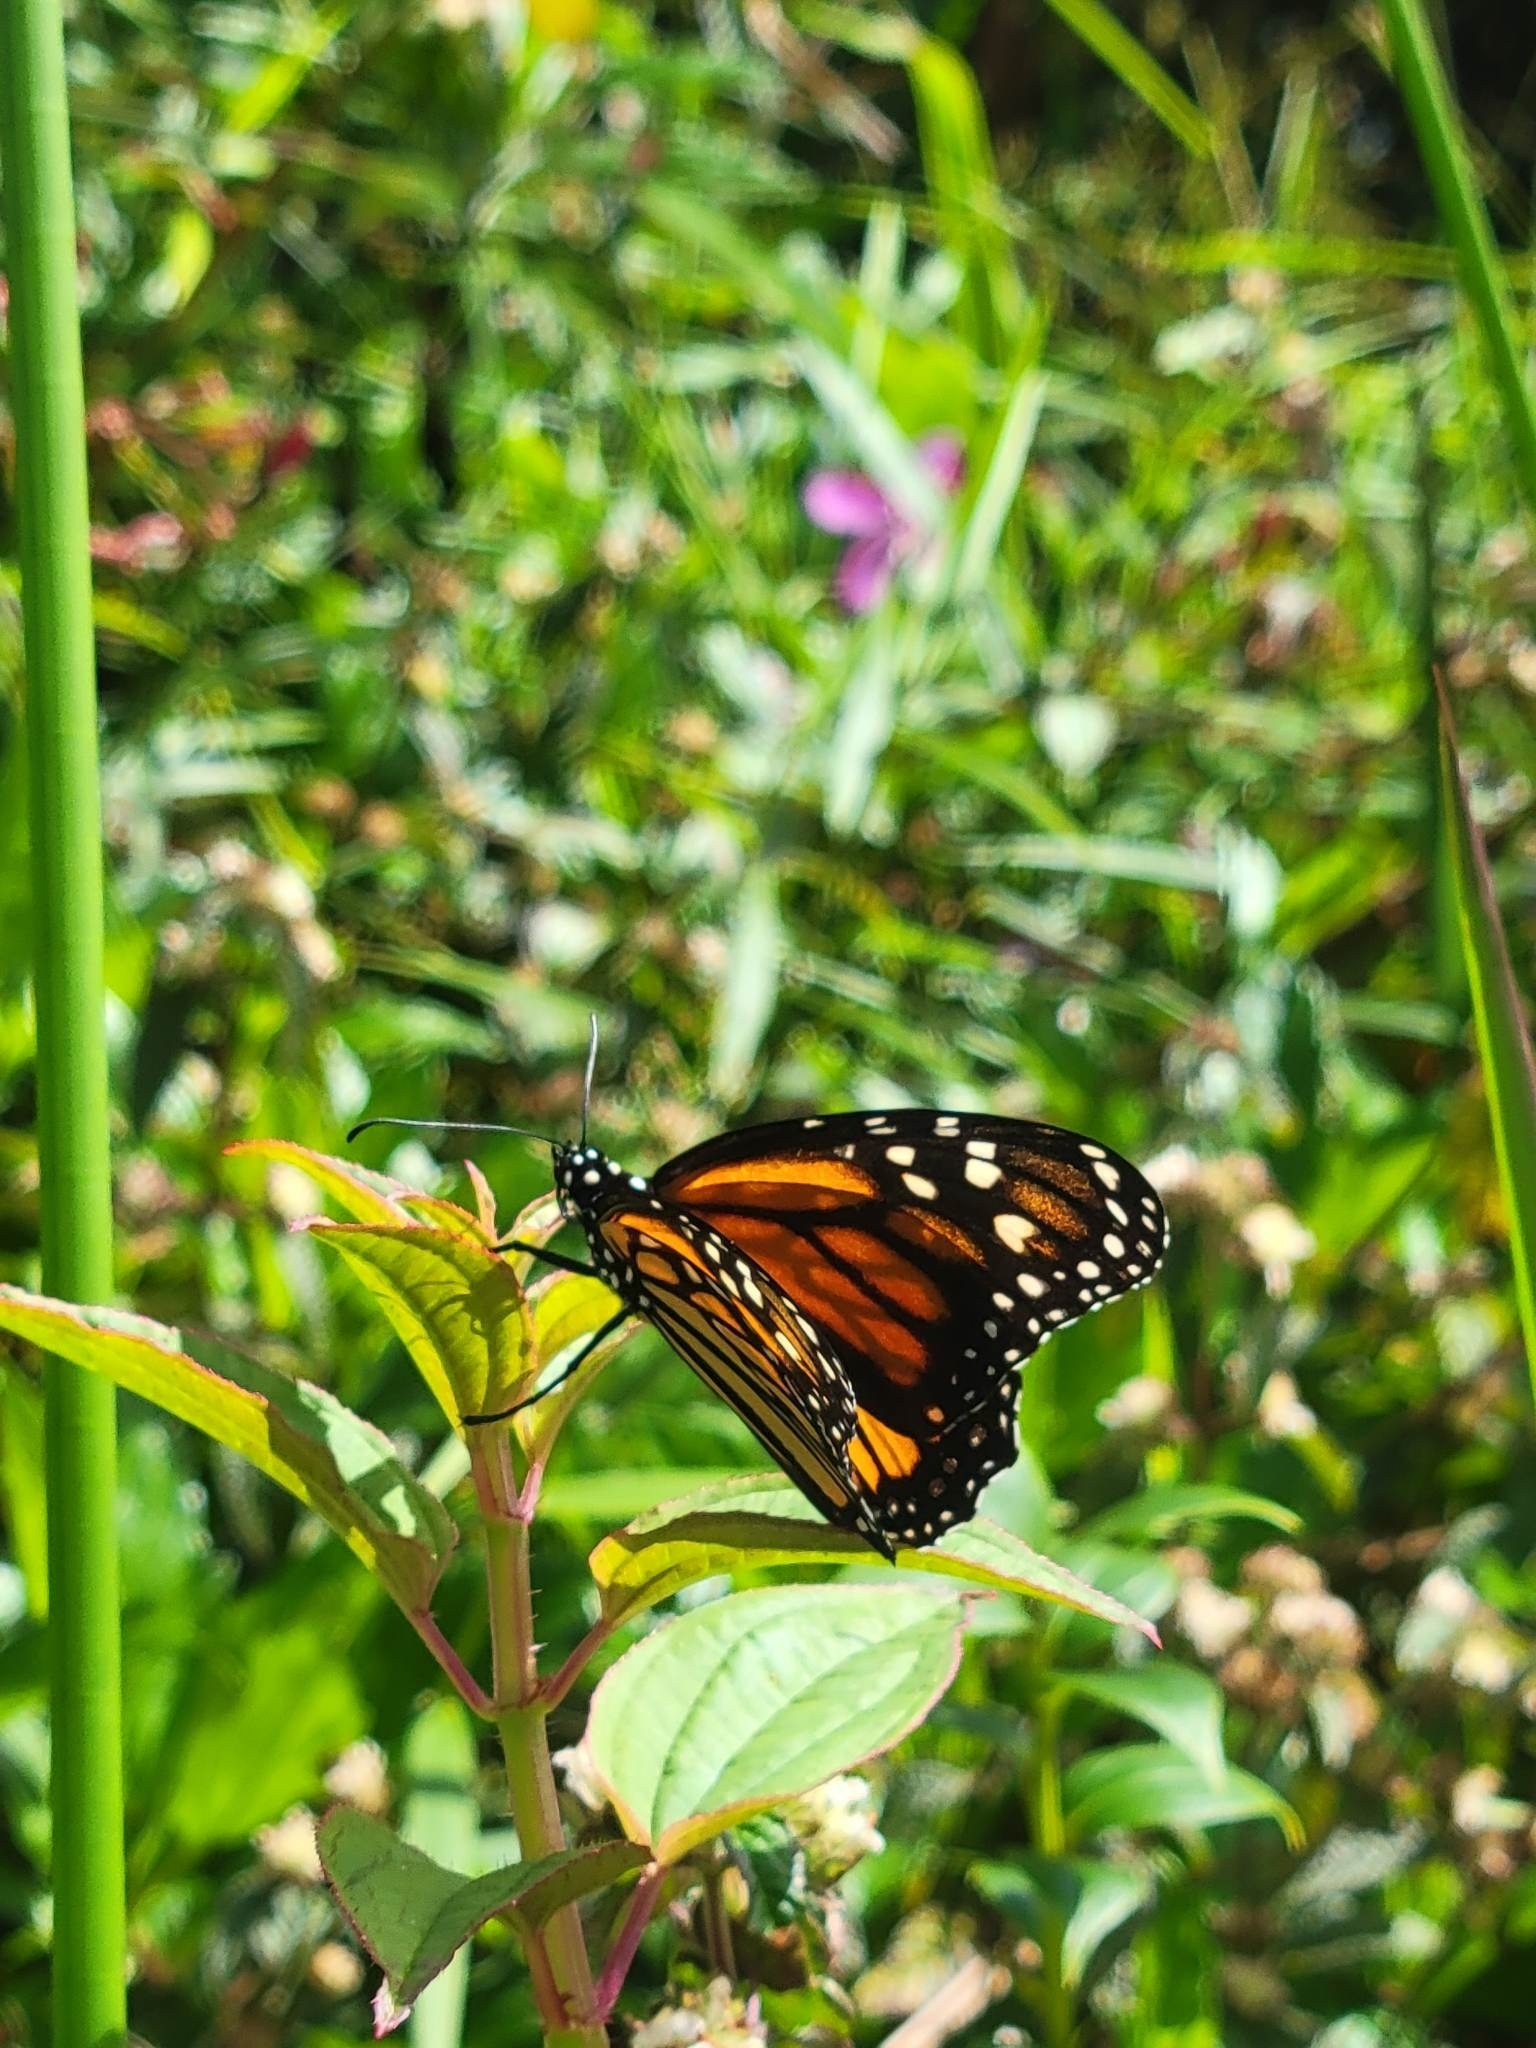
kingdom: Animalia
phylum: Arthropoda
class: Insecta
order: Lepidoptera
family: Nymphalidae
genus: Danaus
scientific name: Danaus plexippus
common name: Monarch
